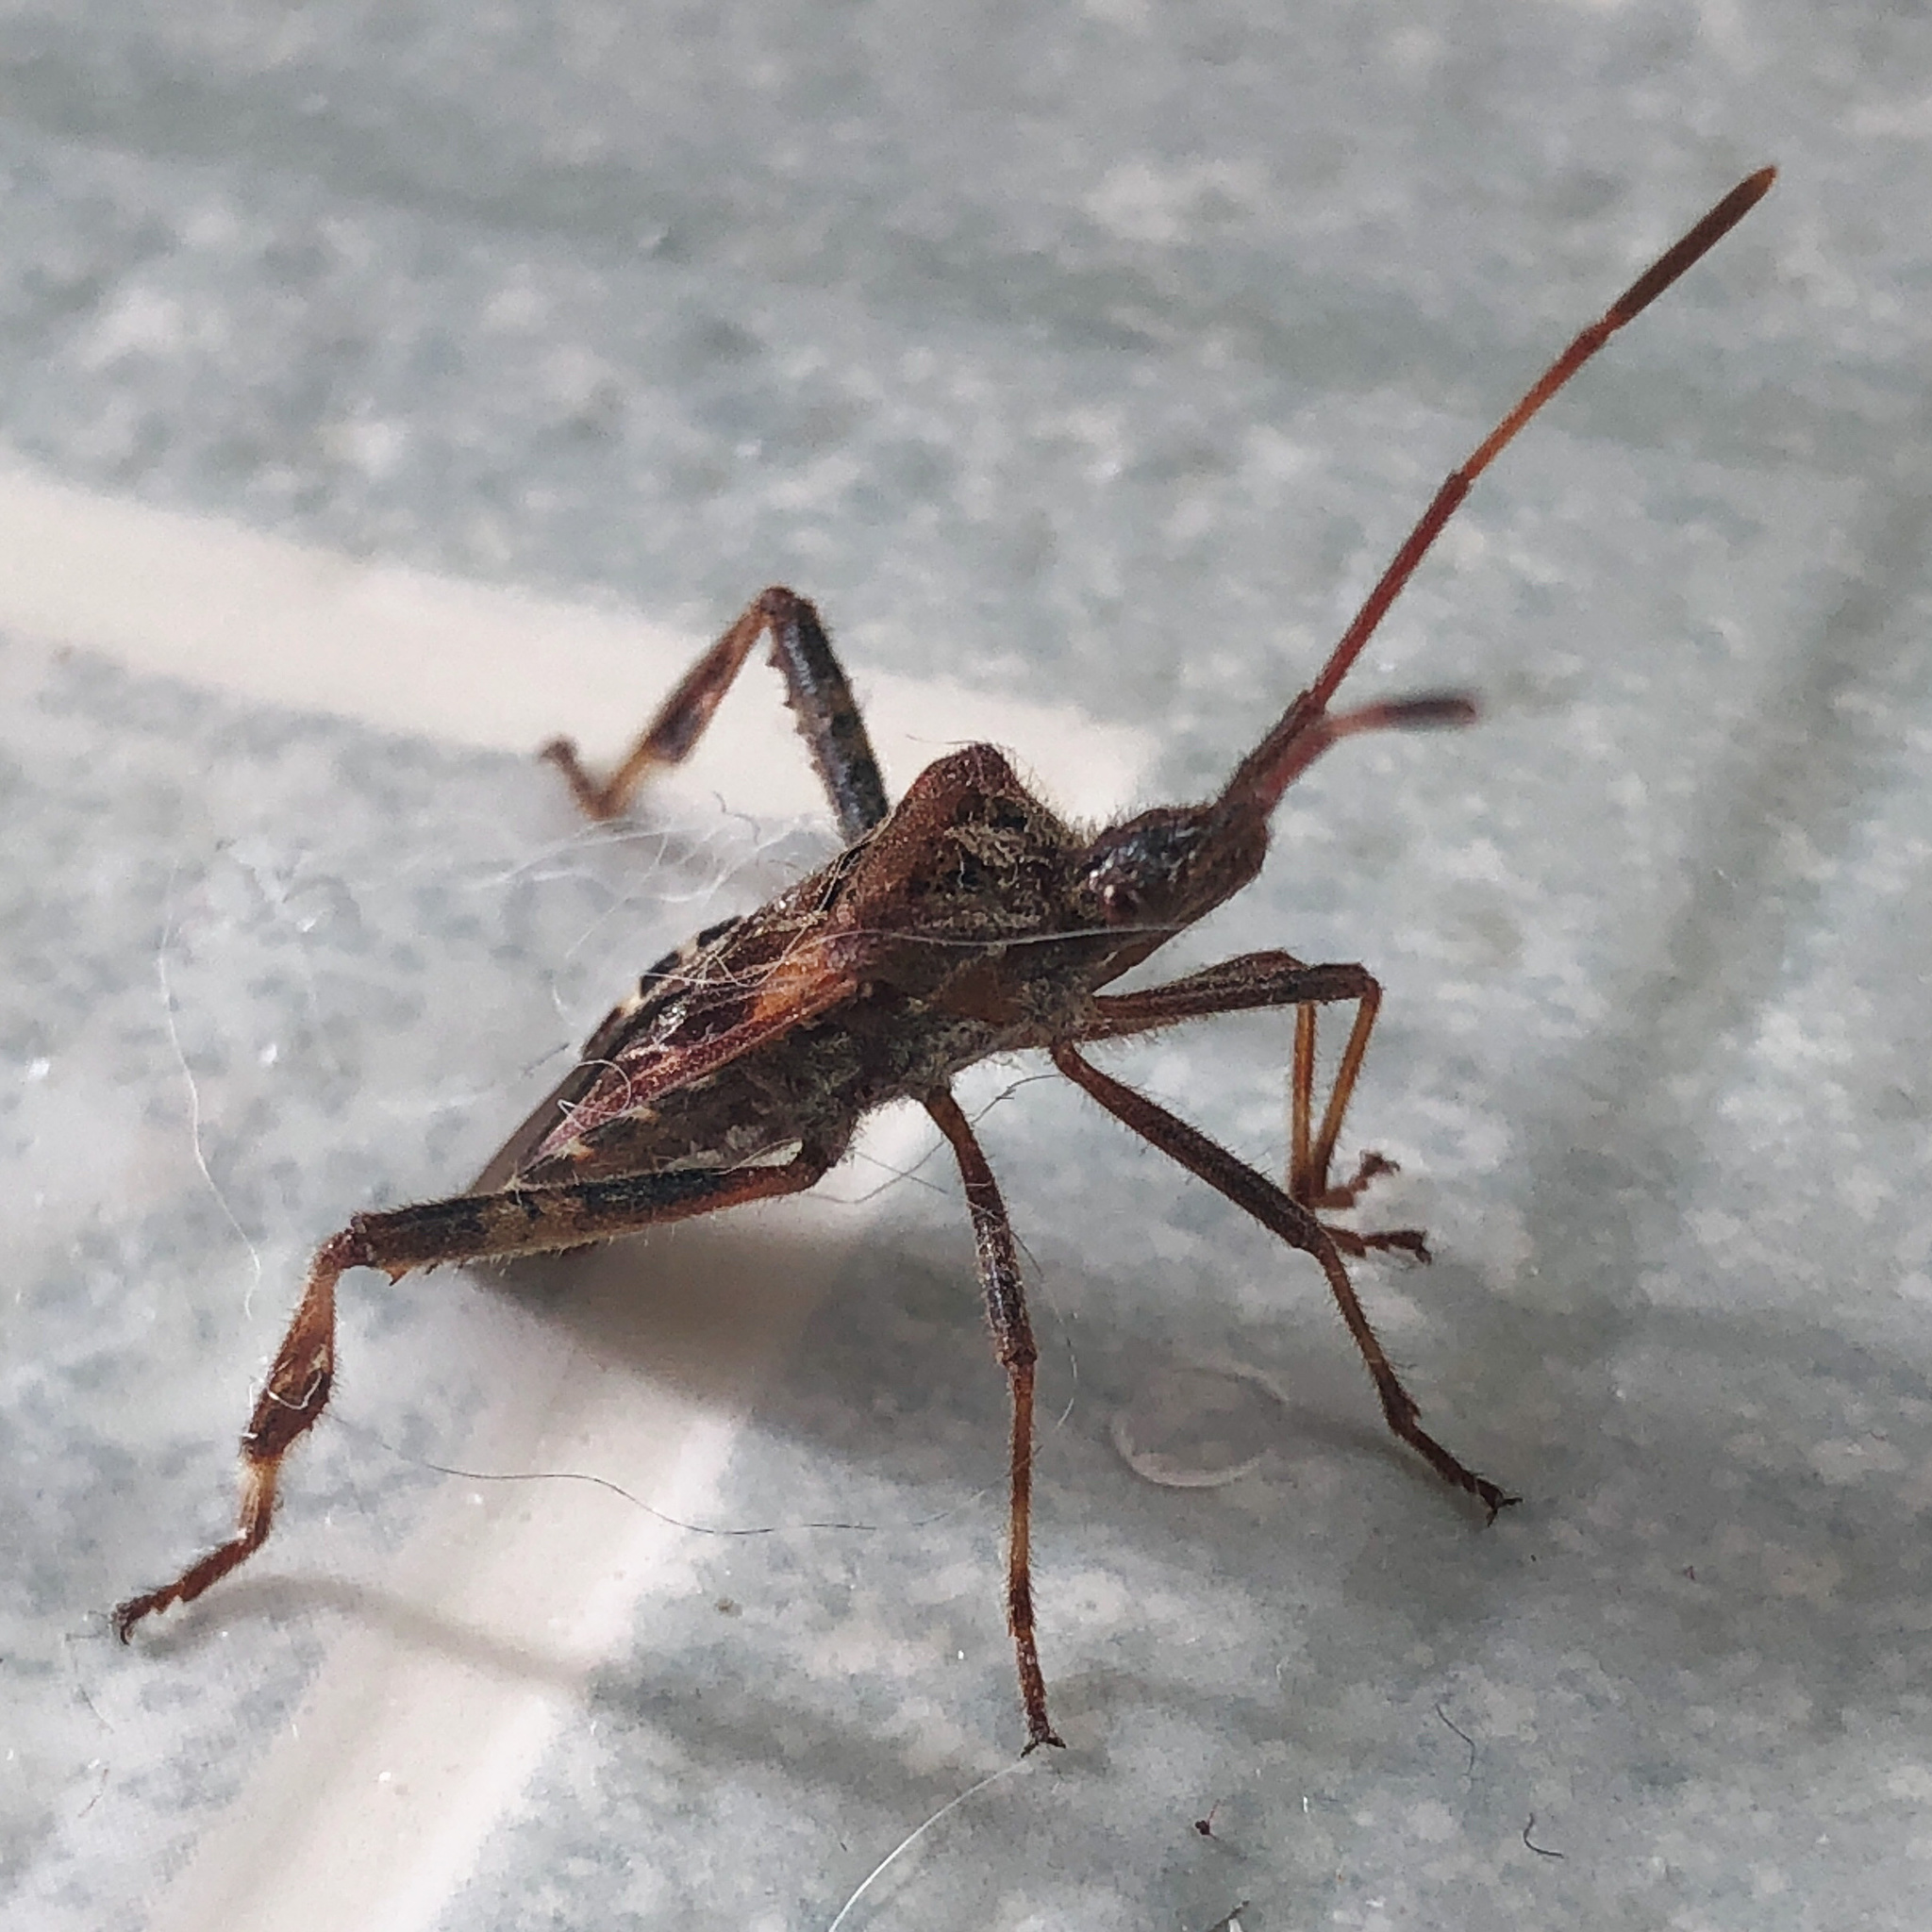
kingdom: Animalia
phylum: Arthropoda
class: Insecta
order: Hemiptera
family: Coreidae
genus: Leptoglossus
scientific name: Leptoglossus occidentalis
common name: Western conifer-seed bug
